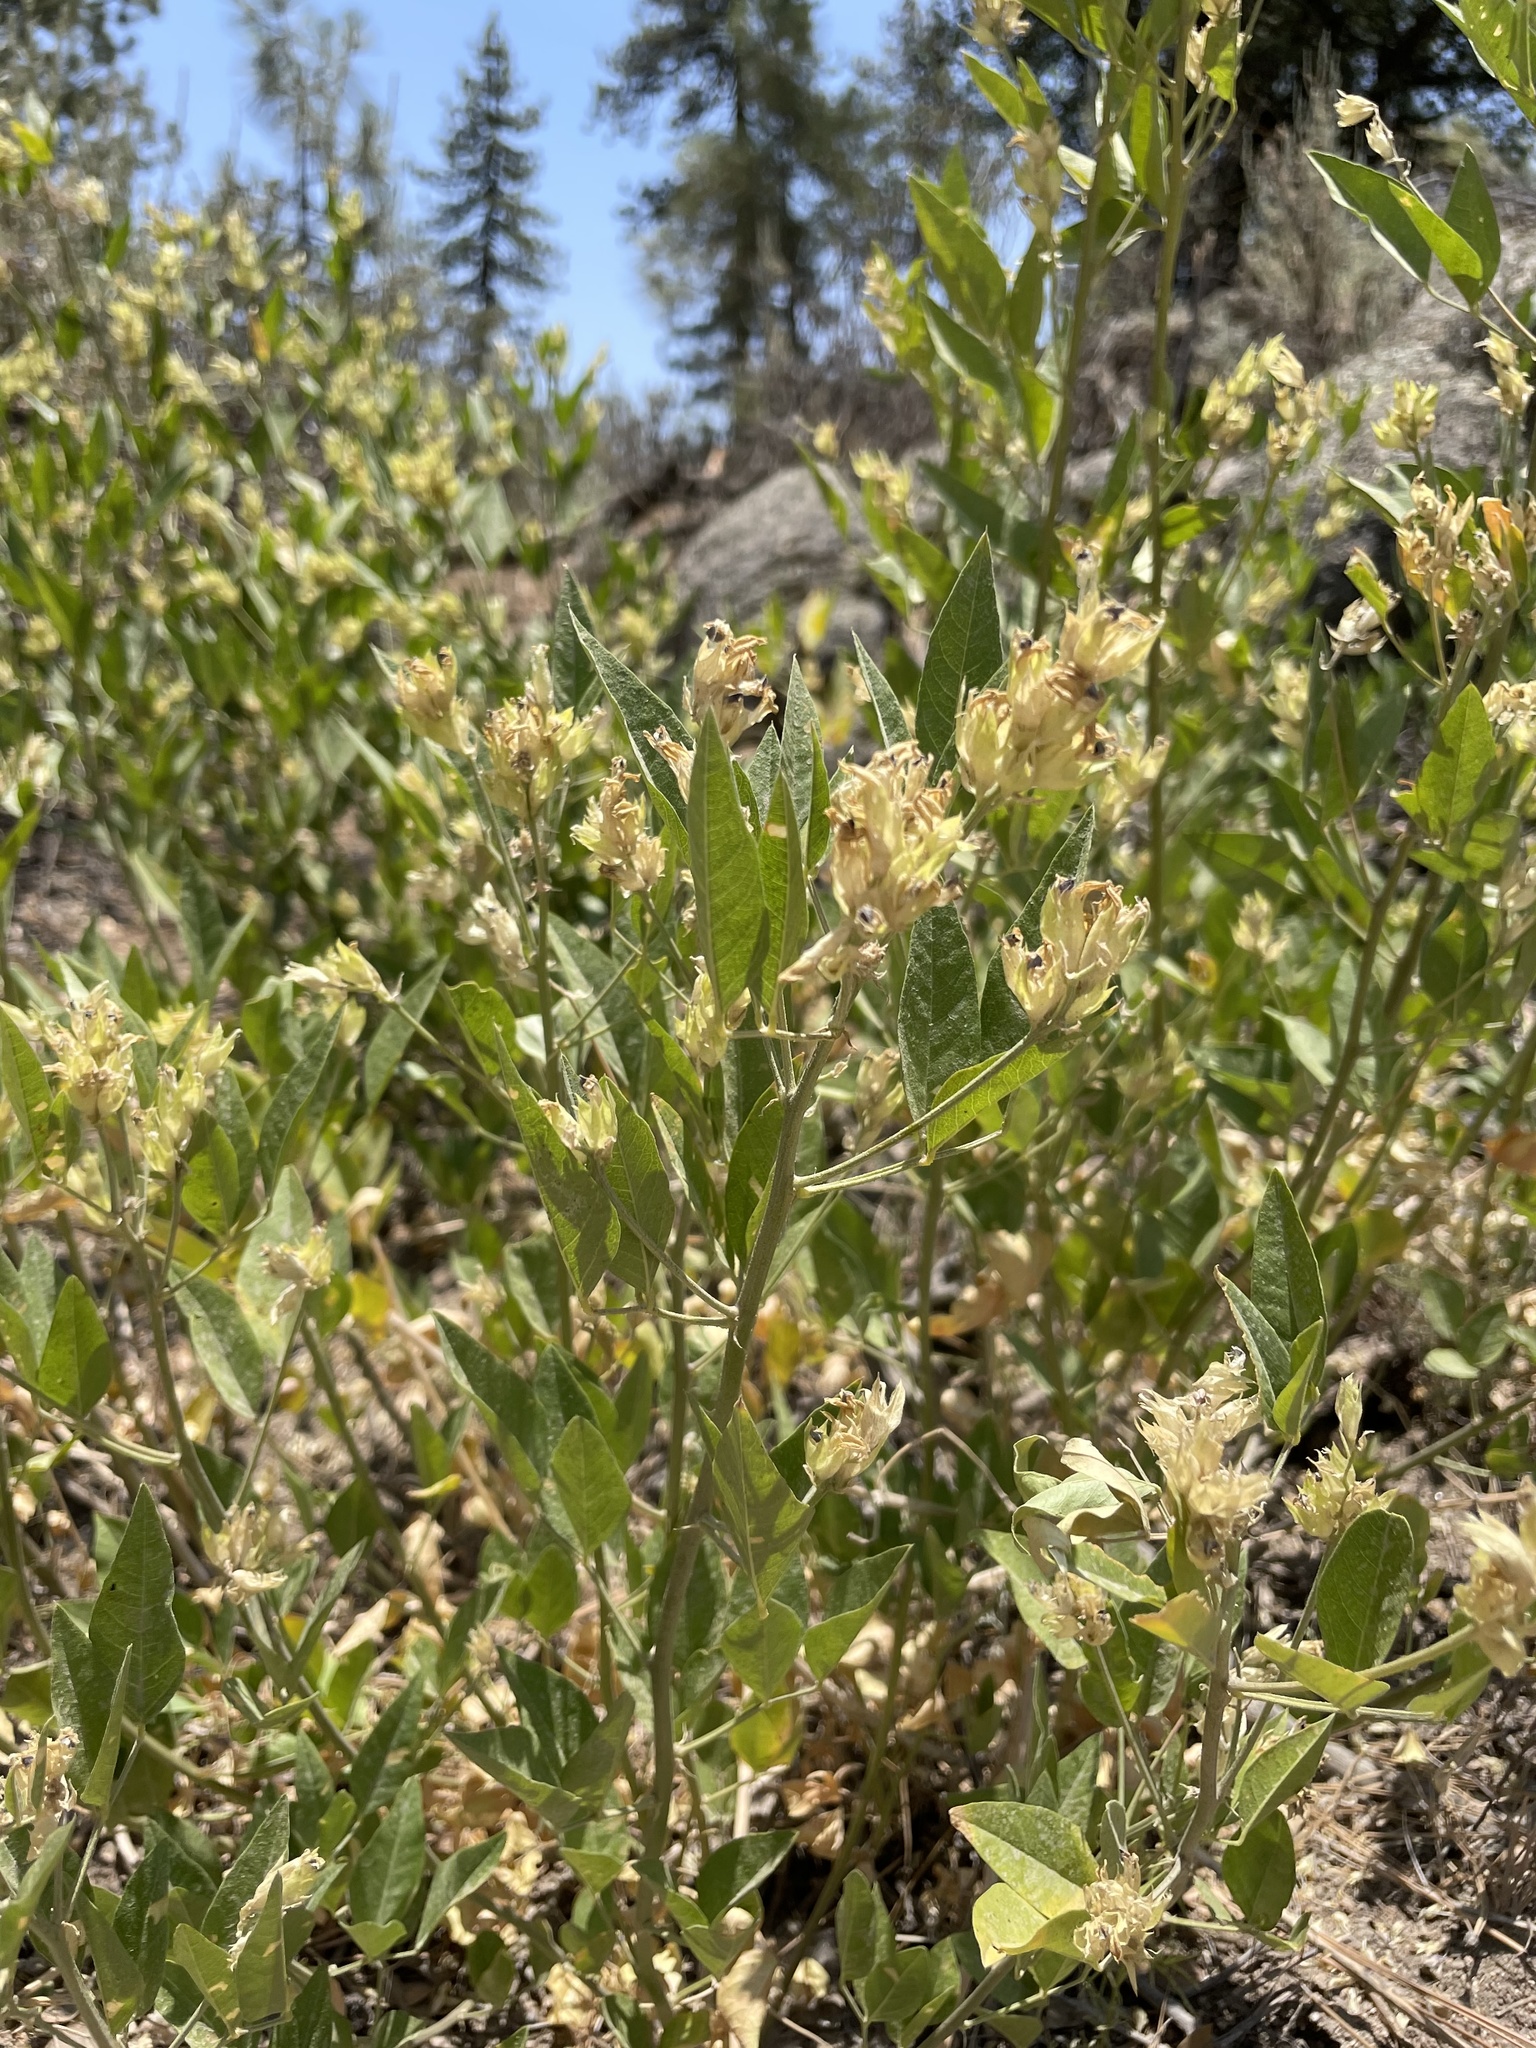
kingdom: Plantae
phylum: Tracheophyta
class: Magnoliopsida
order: Fabales
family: Fabaceae
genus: Rupertia
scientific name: Rupertia rigida
